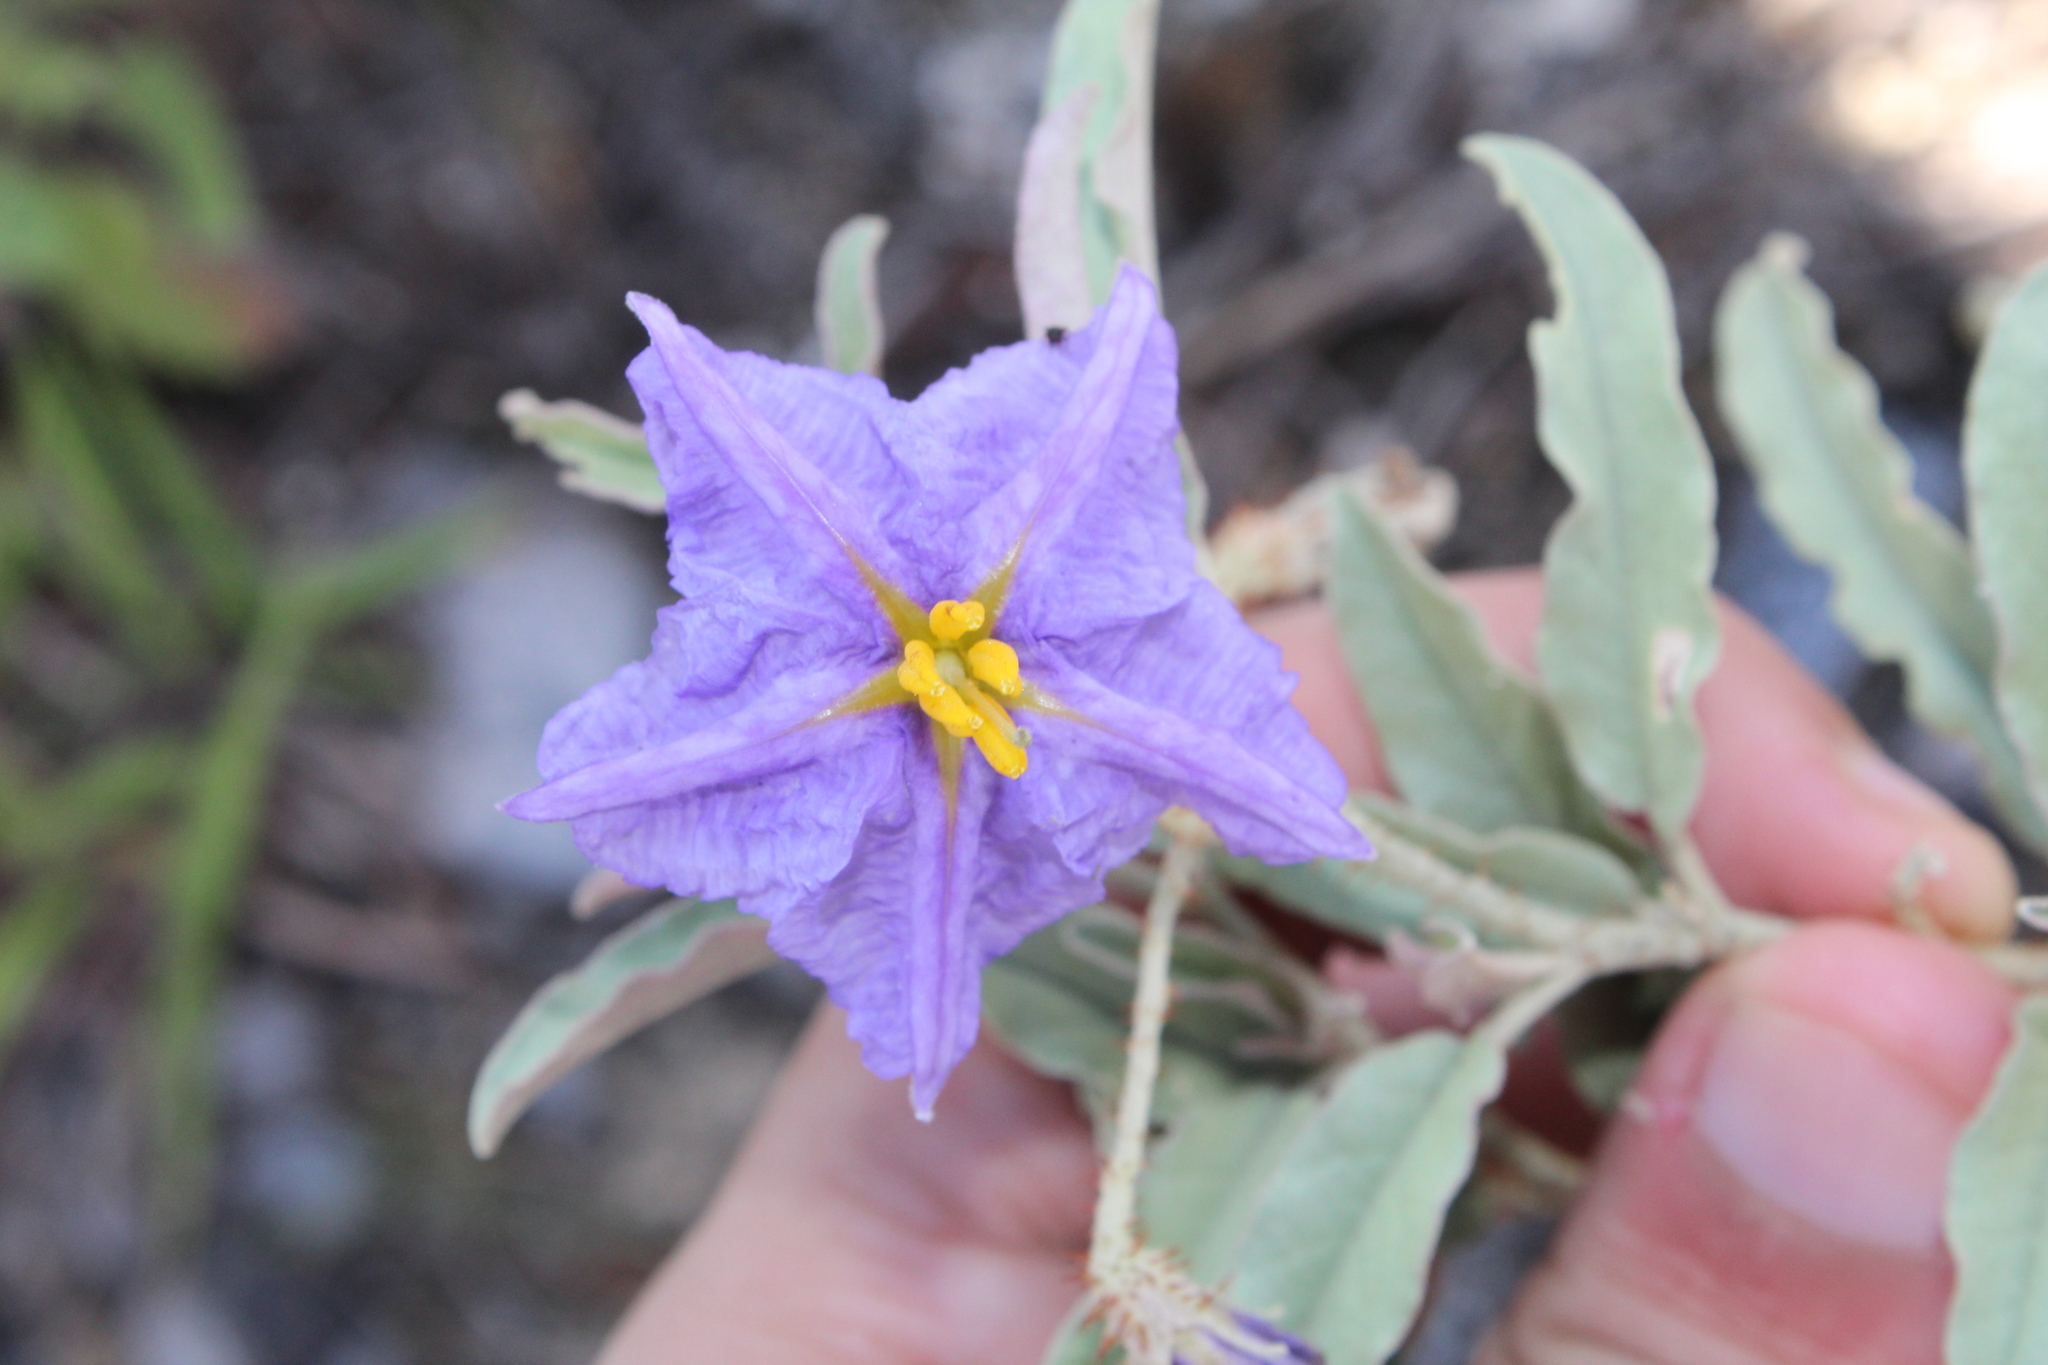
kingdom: Plantae
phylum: Tracheophyta
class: Magnoliopsida
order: Solanales
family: Solanaceae
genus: Solanum
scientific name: Solanum elaeagnifolium
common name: Silverleaf nightshade
